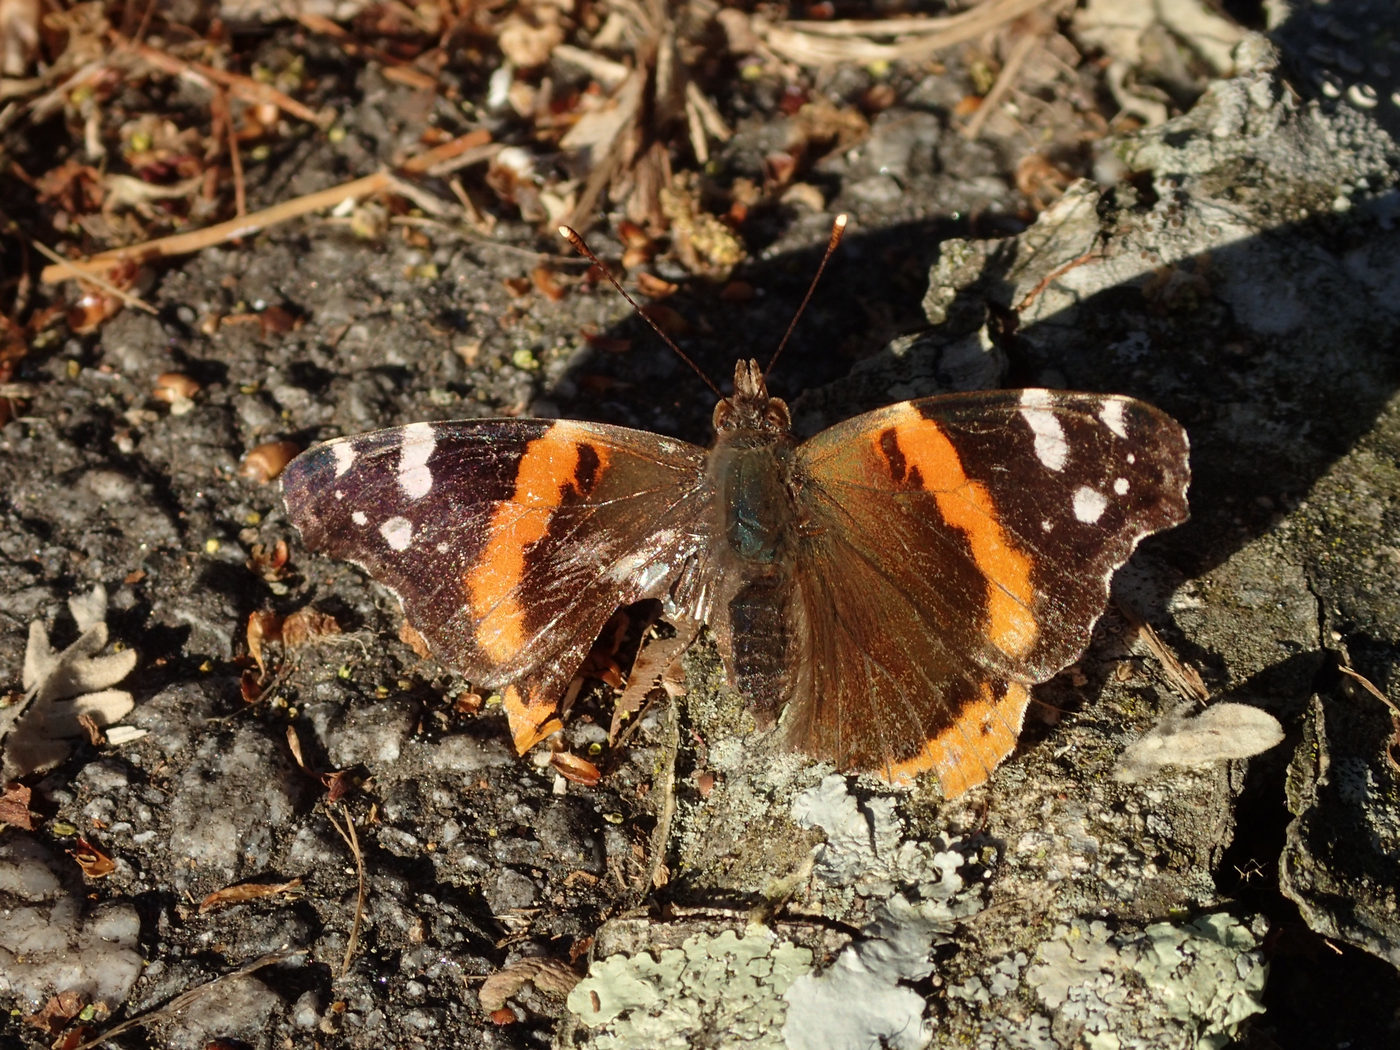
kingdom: Animalia
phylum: Arthropoda
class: Insecta
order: Lepidoptera
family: Nymphalidae
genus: Vanessa
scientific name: Vanessa atalanta
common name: Red admiral
